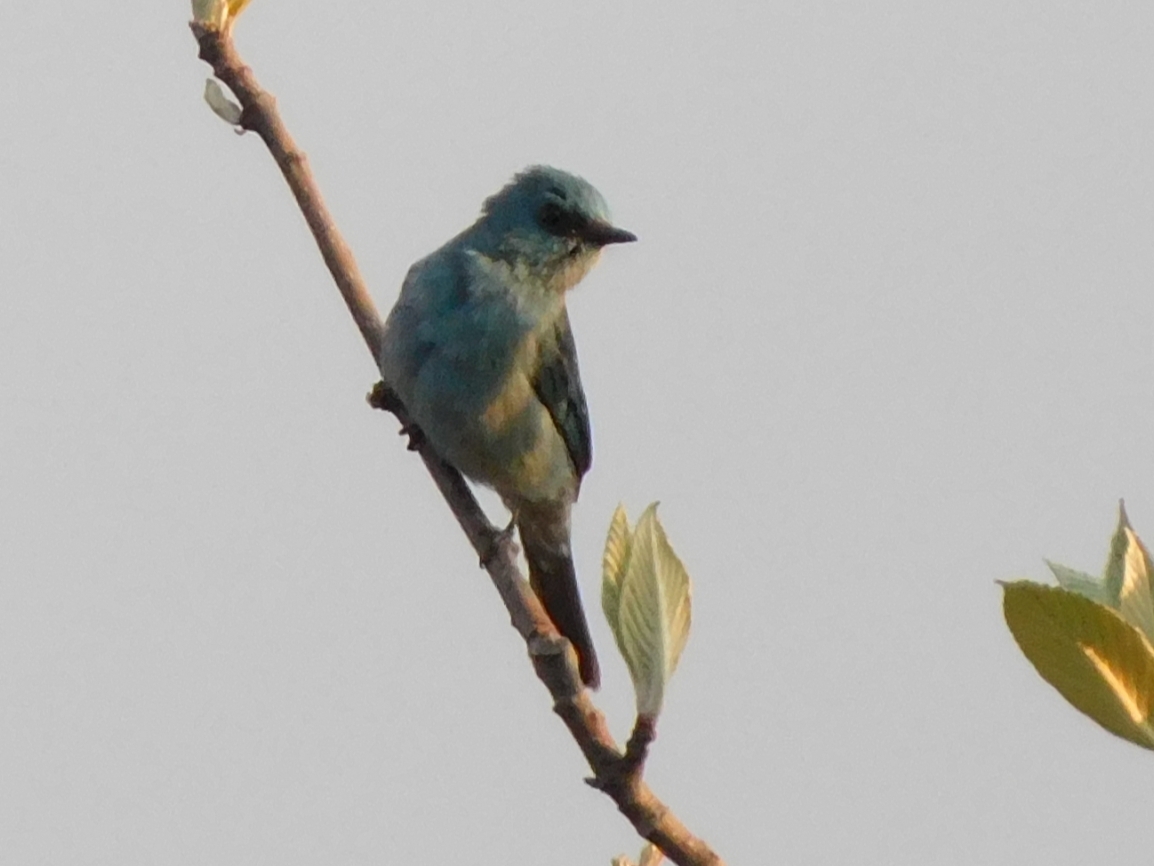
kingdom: Animalia
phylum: Chordata
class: Aves
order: Passeriformes
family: Muscicapidae
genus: Eumyias
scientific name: Eumyias thalassinus
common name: Verditer flycatcher
